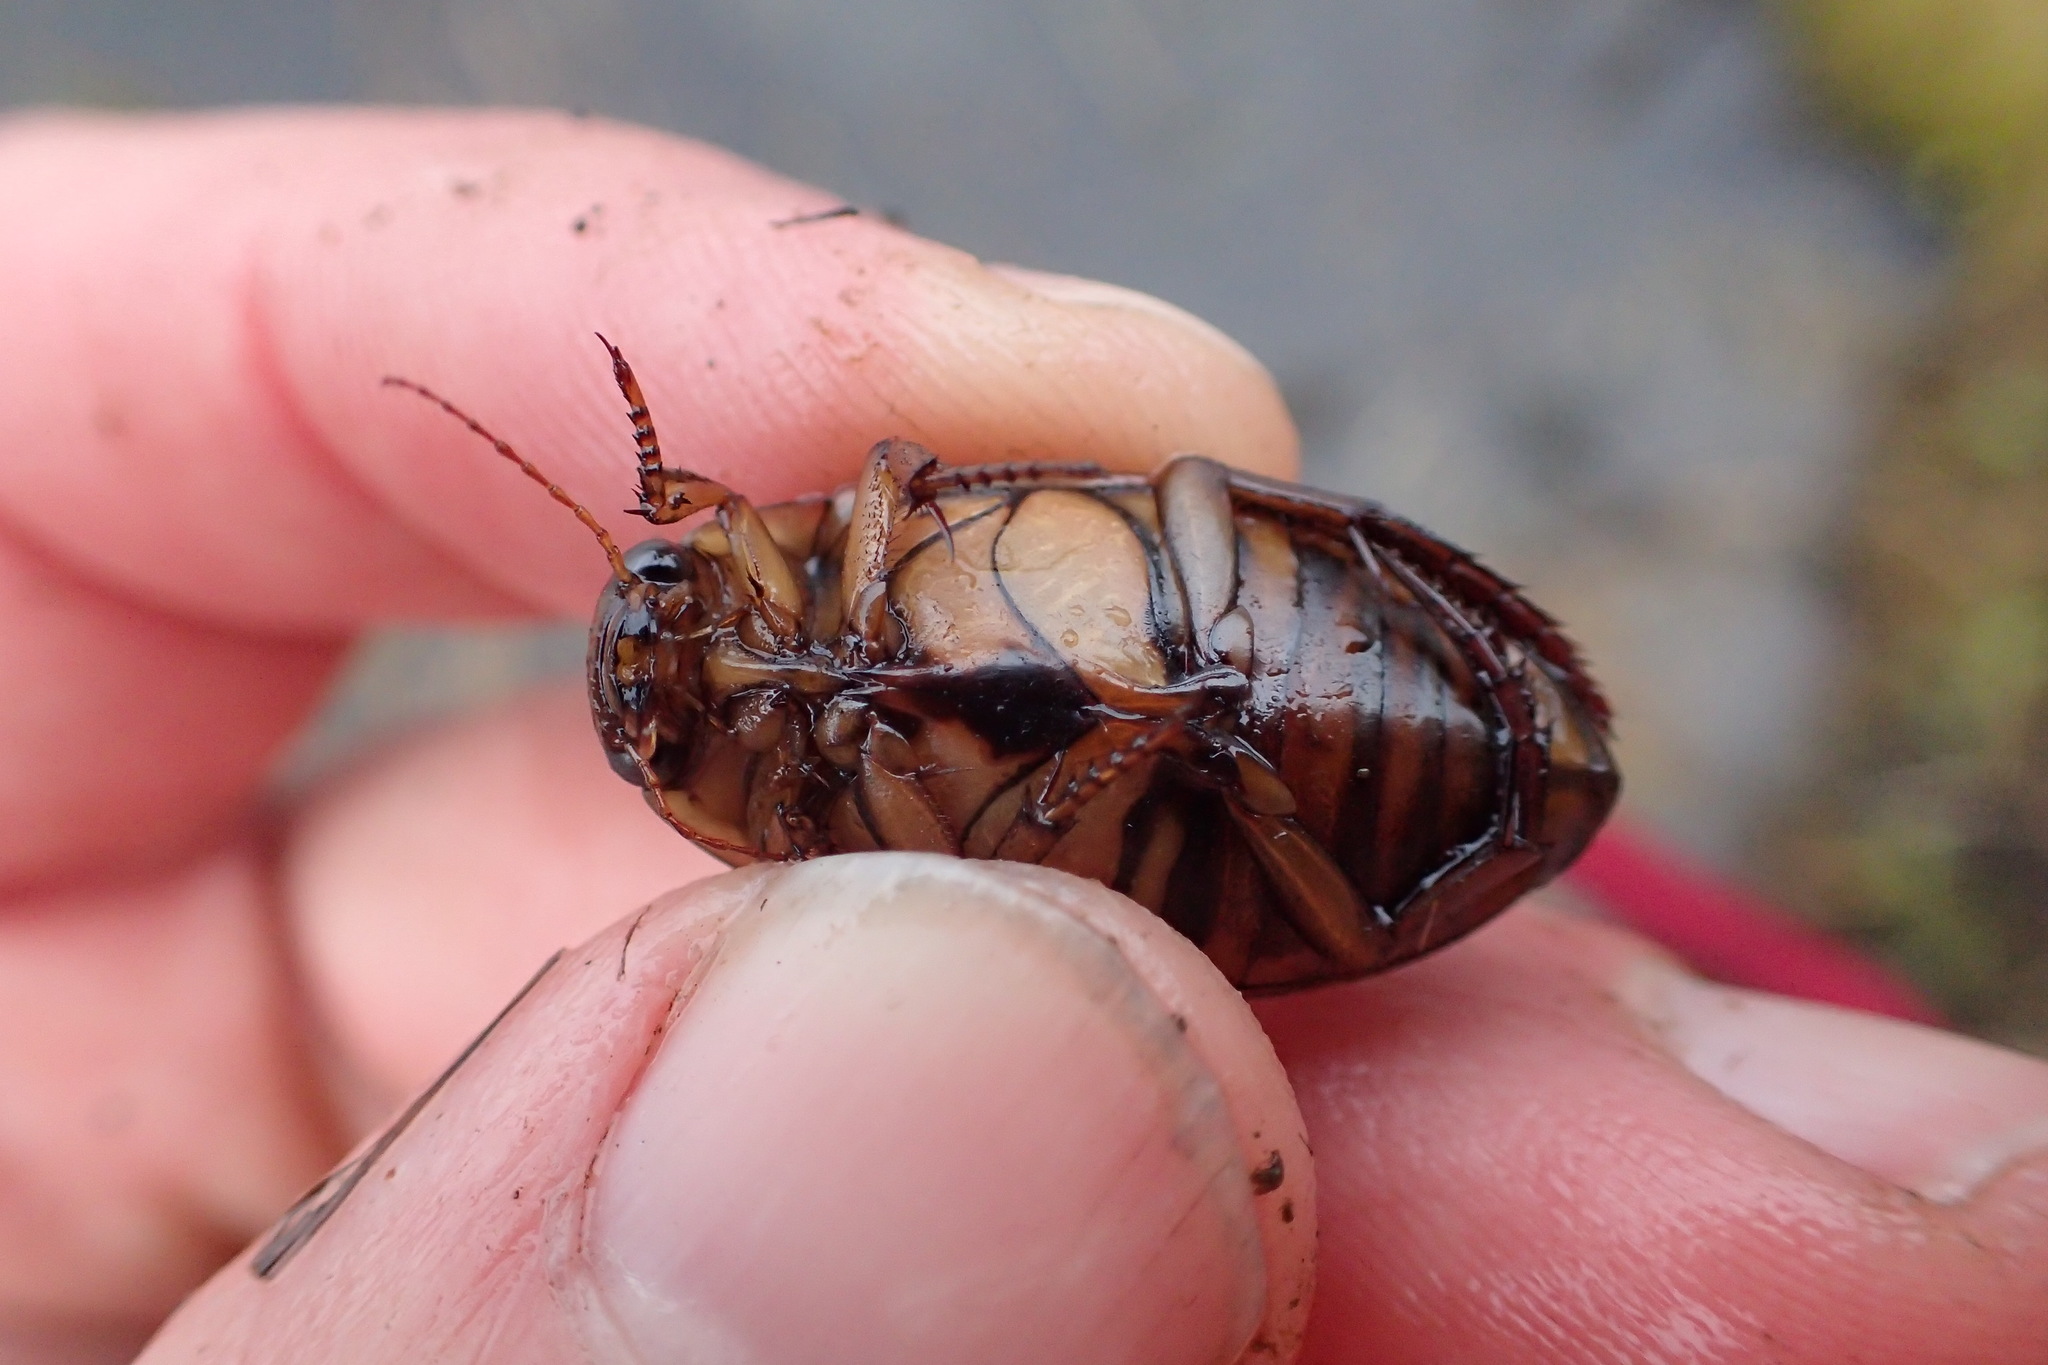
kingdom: Animalia
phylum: Arthropoda
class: Insecta
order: Coleoptera
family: Dytiscidae
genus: Dytiscus
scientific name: Dytiscus fasciventris
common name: Understriped diving beetle
